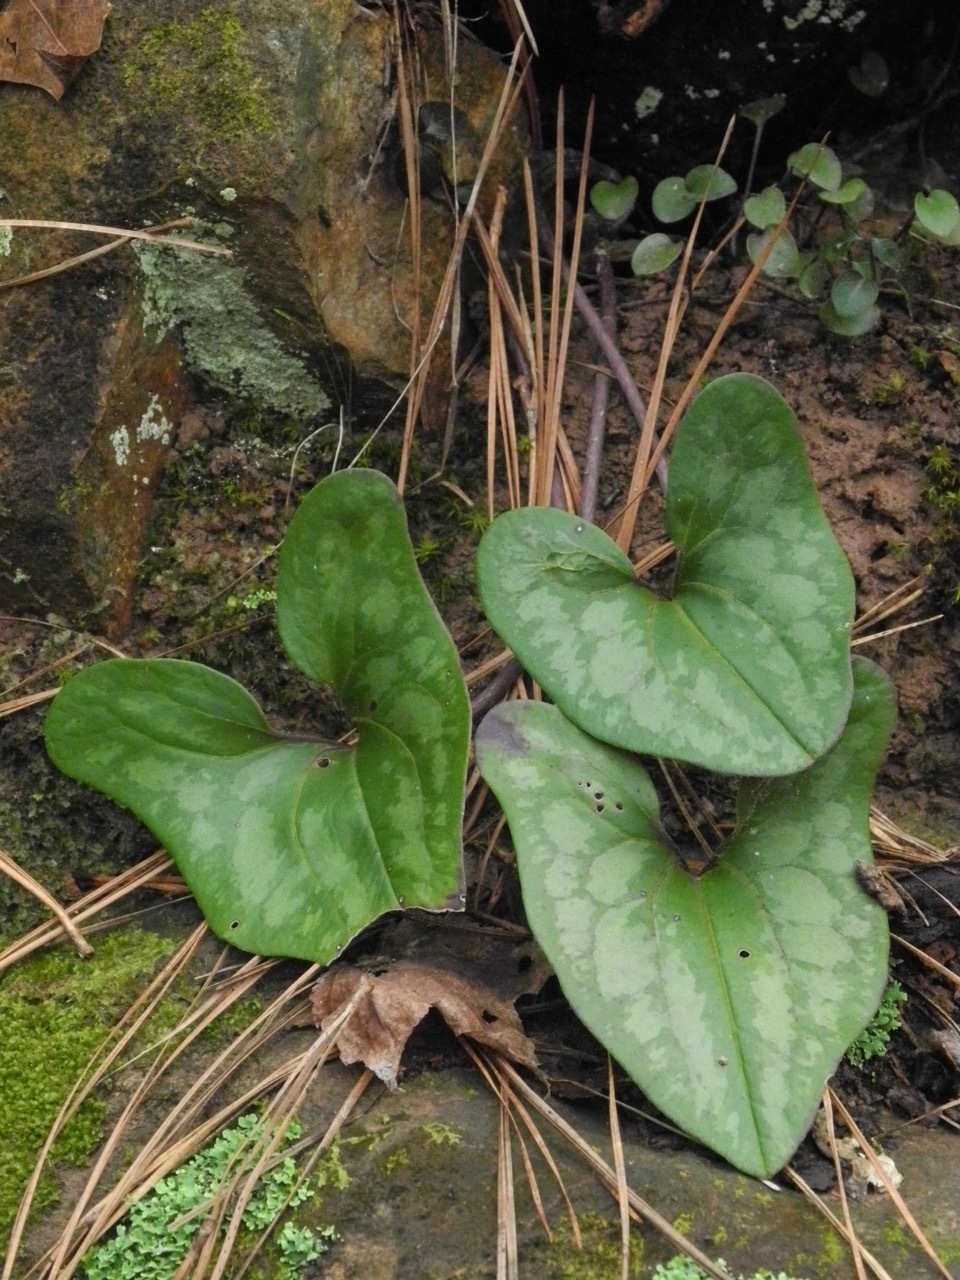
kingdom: Plantae
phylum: Tracheophyta
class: Magnoliopsida
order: Piperales
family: Aristolochiaceae
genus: Hexastylis
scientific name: Hexastylis arifolia
